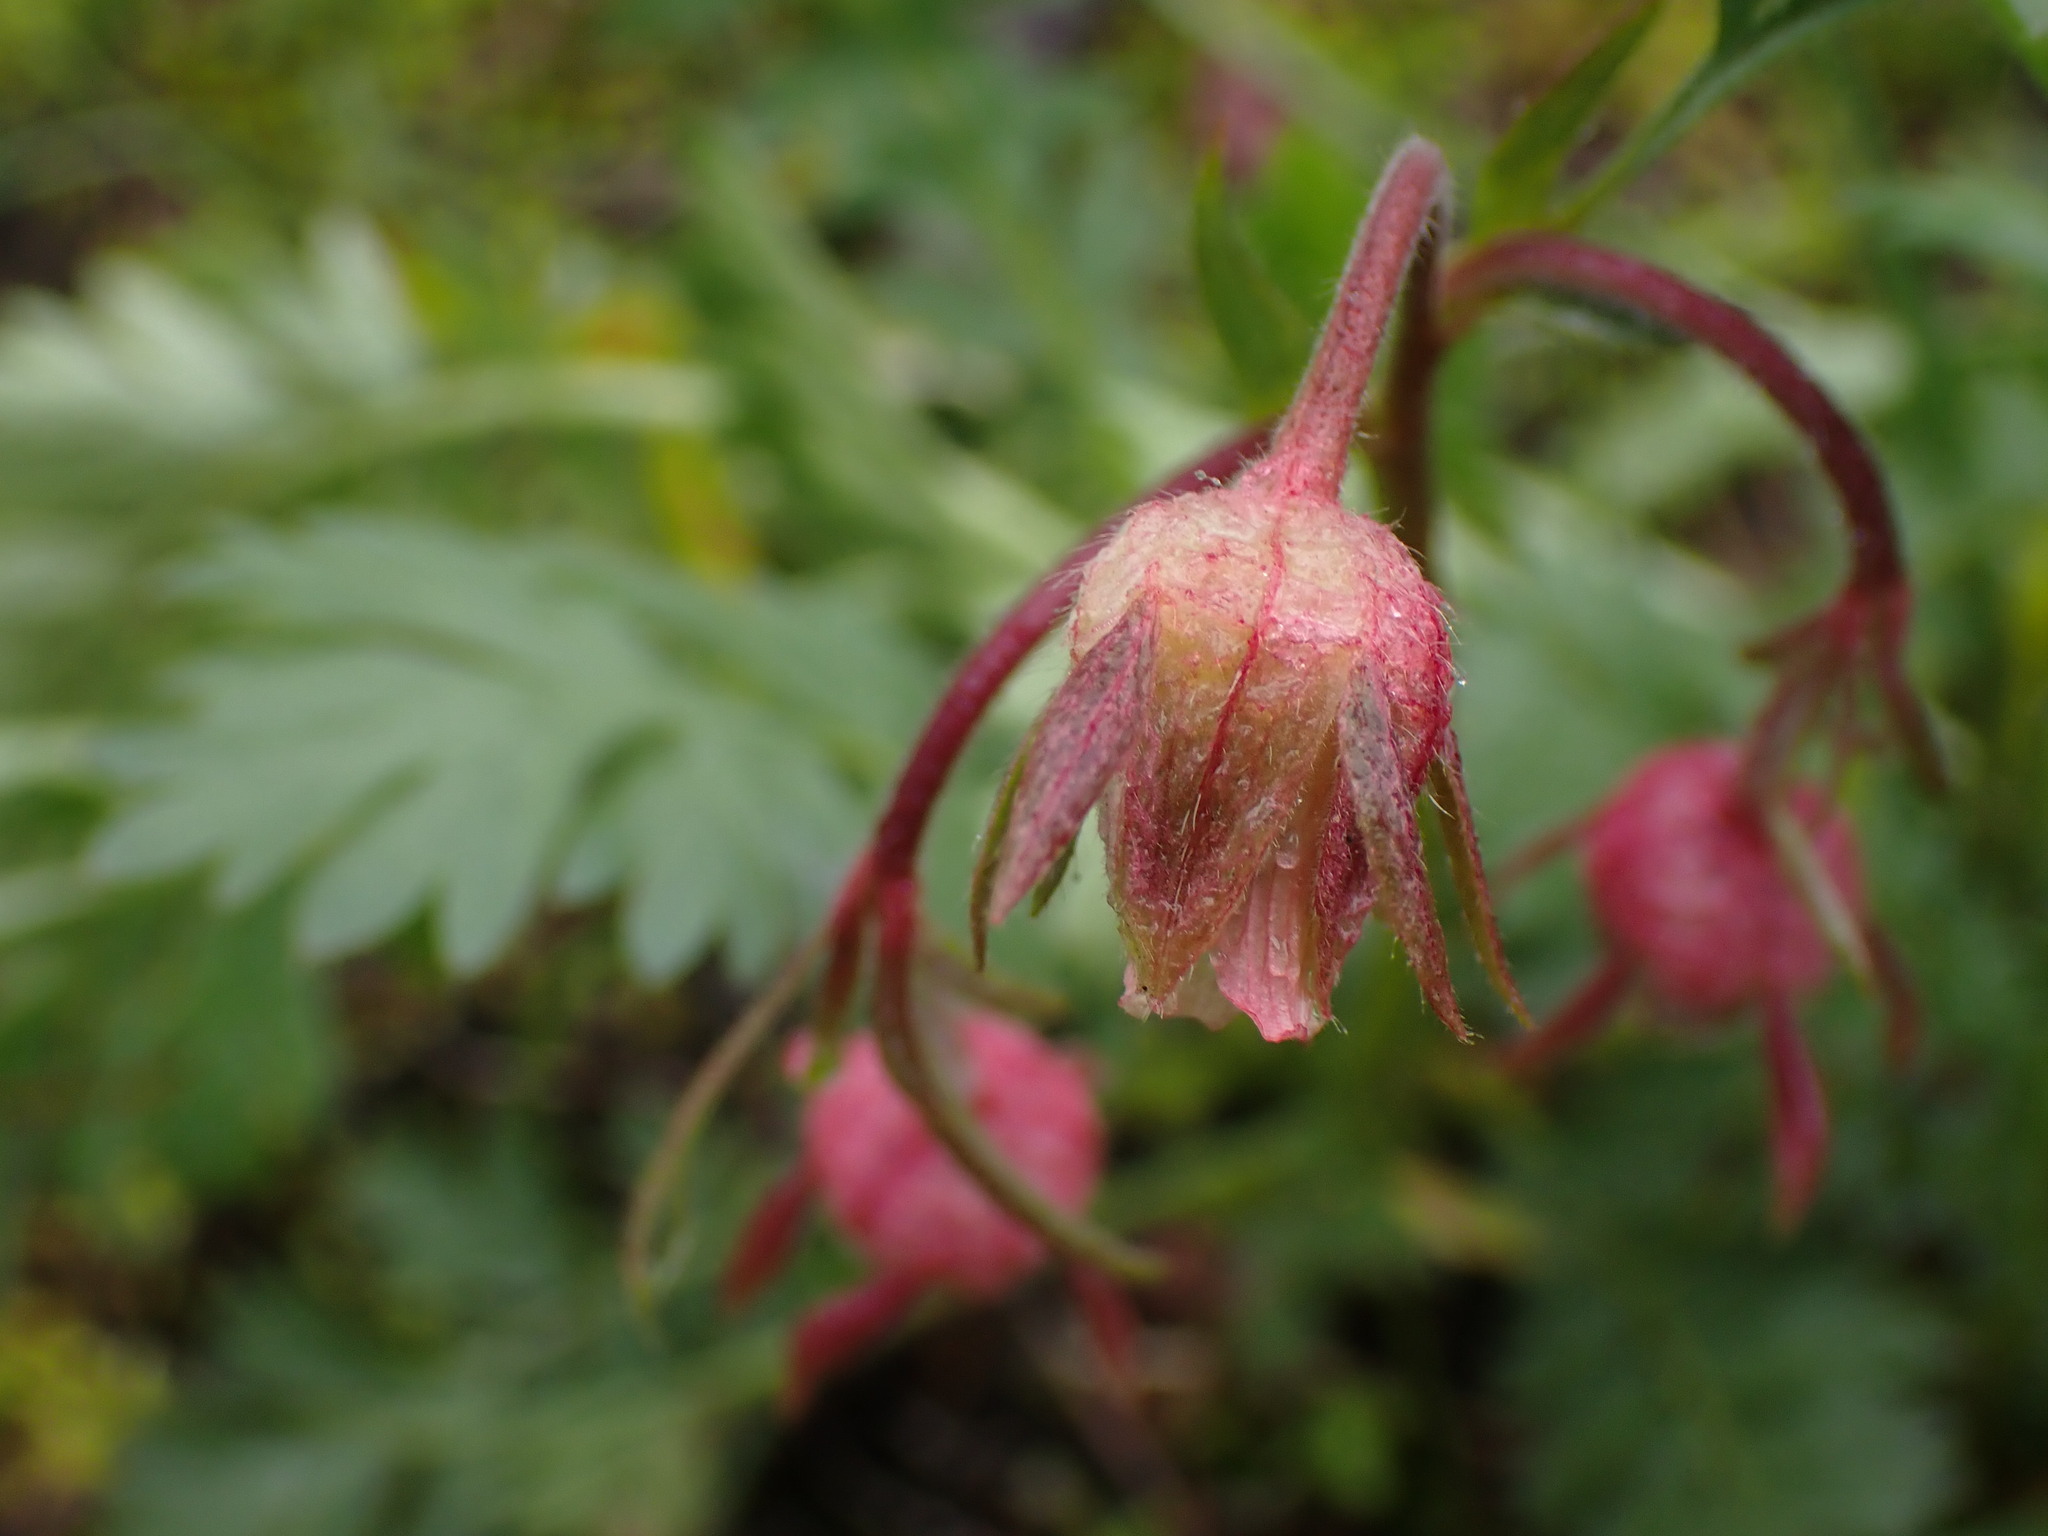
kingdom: Plantae
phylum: Tracheophyta
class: Magnoliopsida
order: Rosales
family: Rosaceae
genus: Geum
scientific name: Geum triflorum
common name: Old man's whiskers
